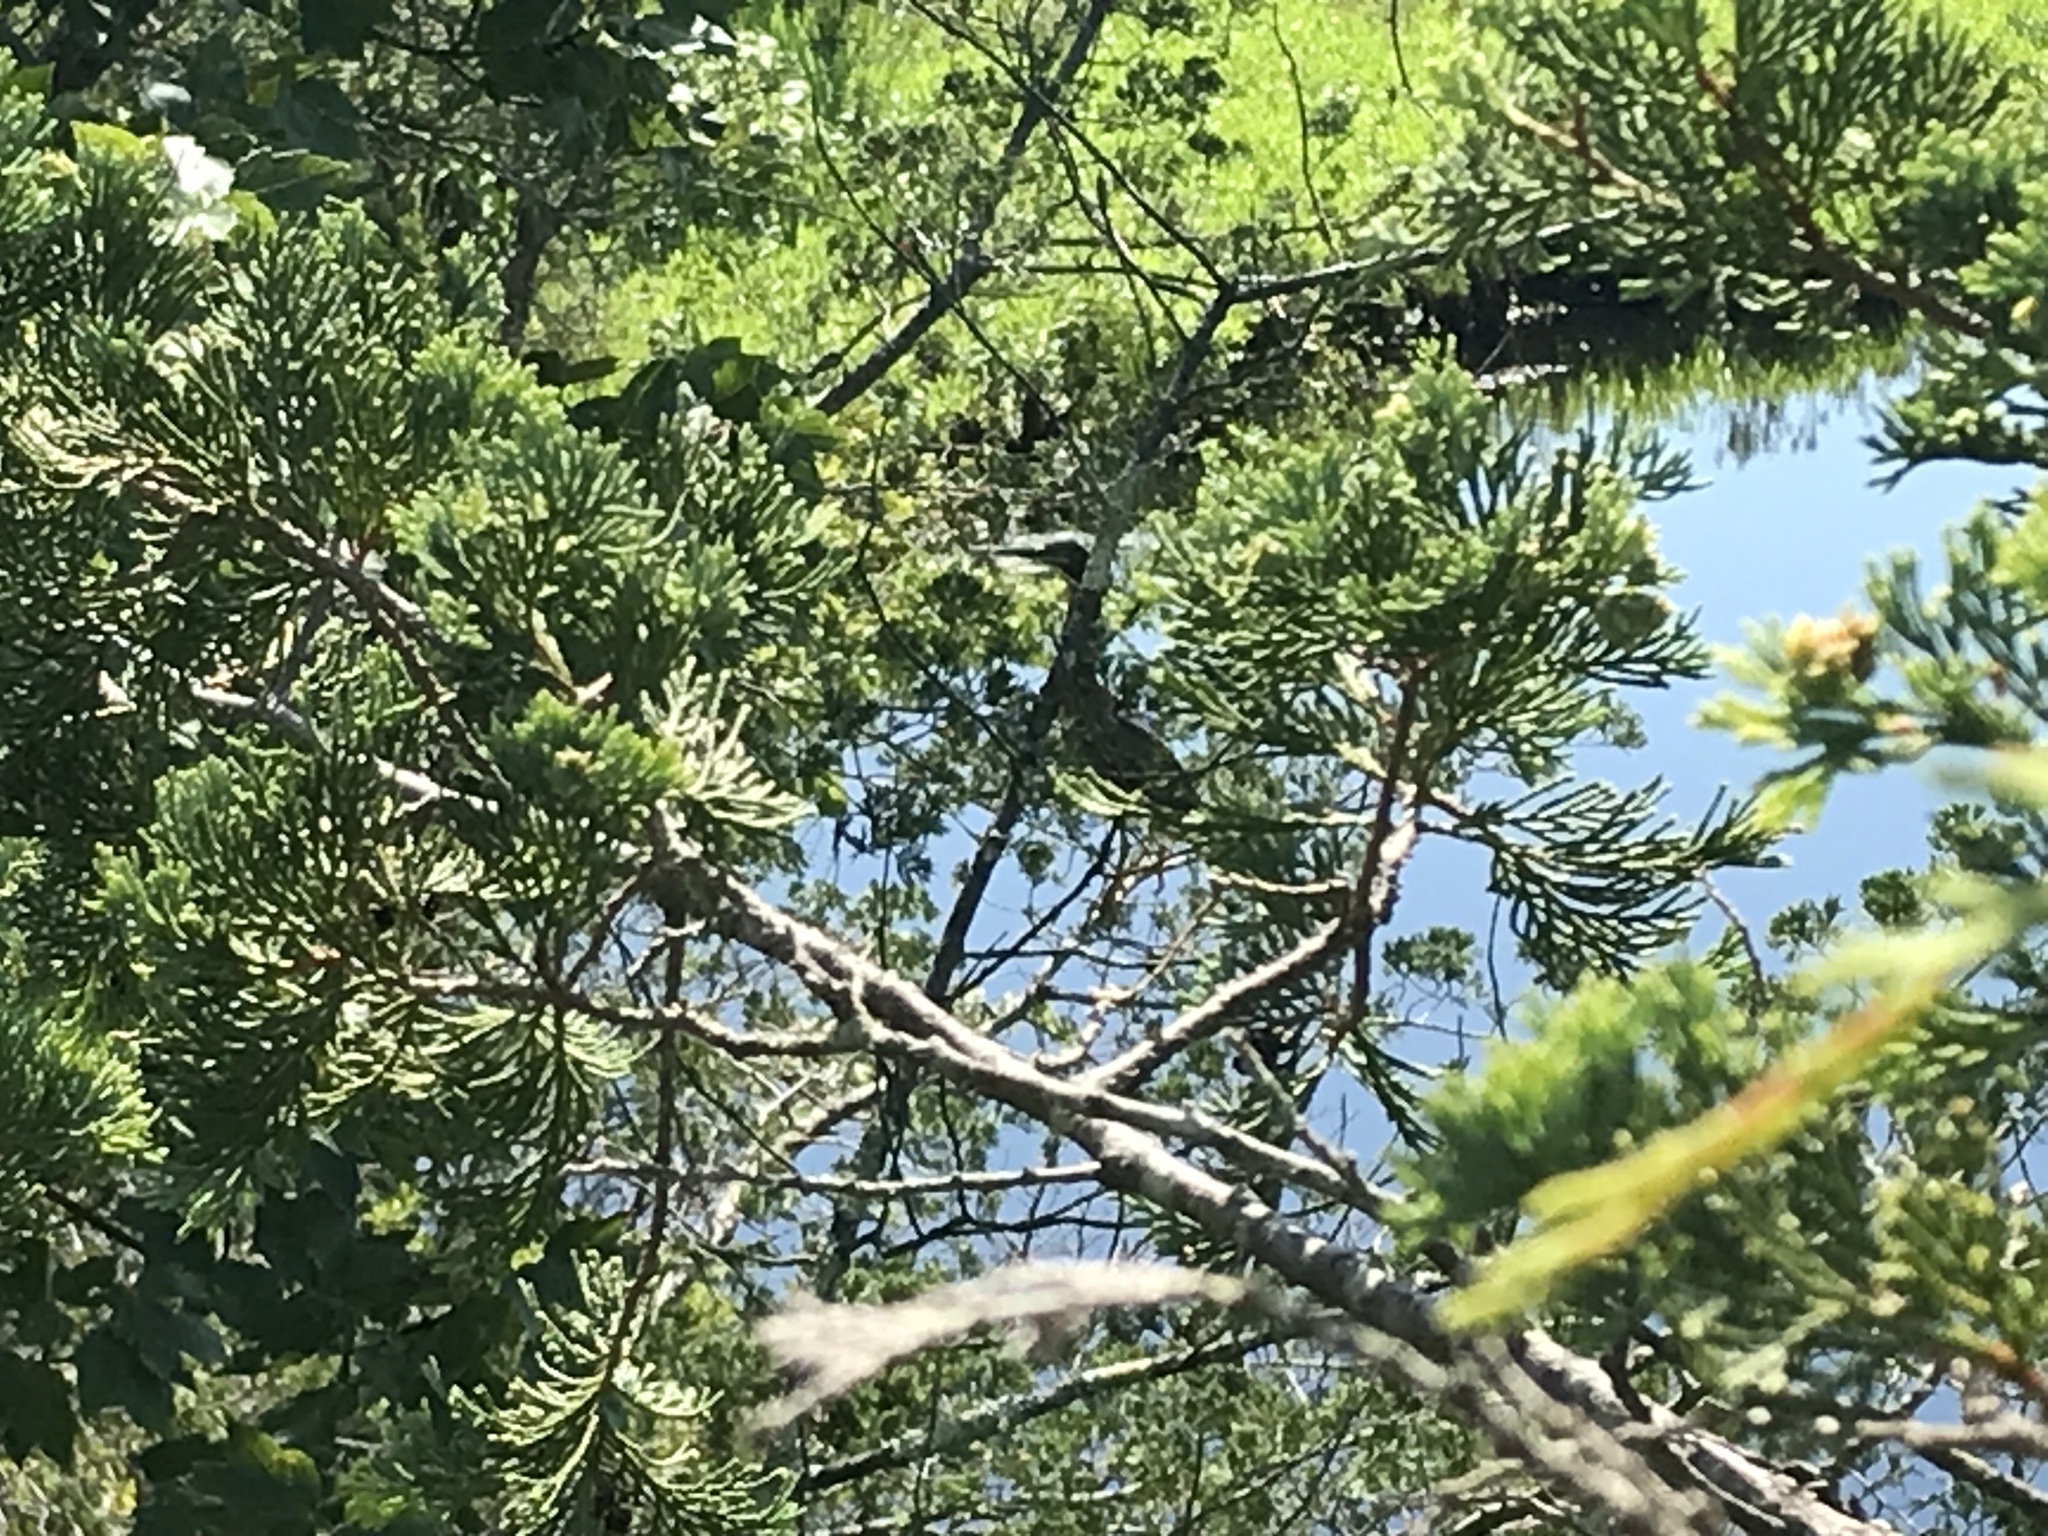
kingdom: Animalia
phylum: Chordata
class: Aves
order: Pelecaniformes
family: Ardeidae
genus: Butorides
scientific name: Butorides virescens
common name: Green heron
